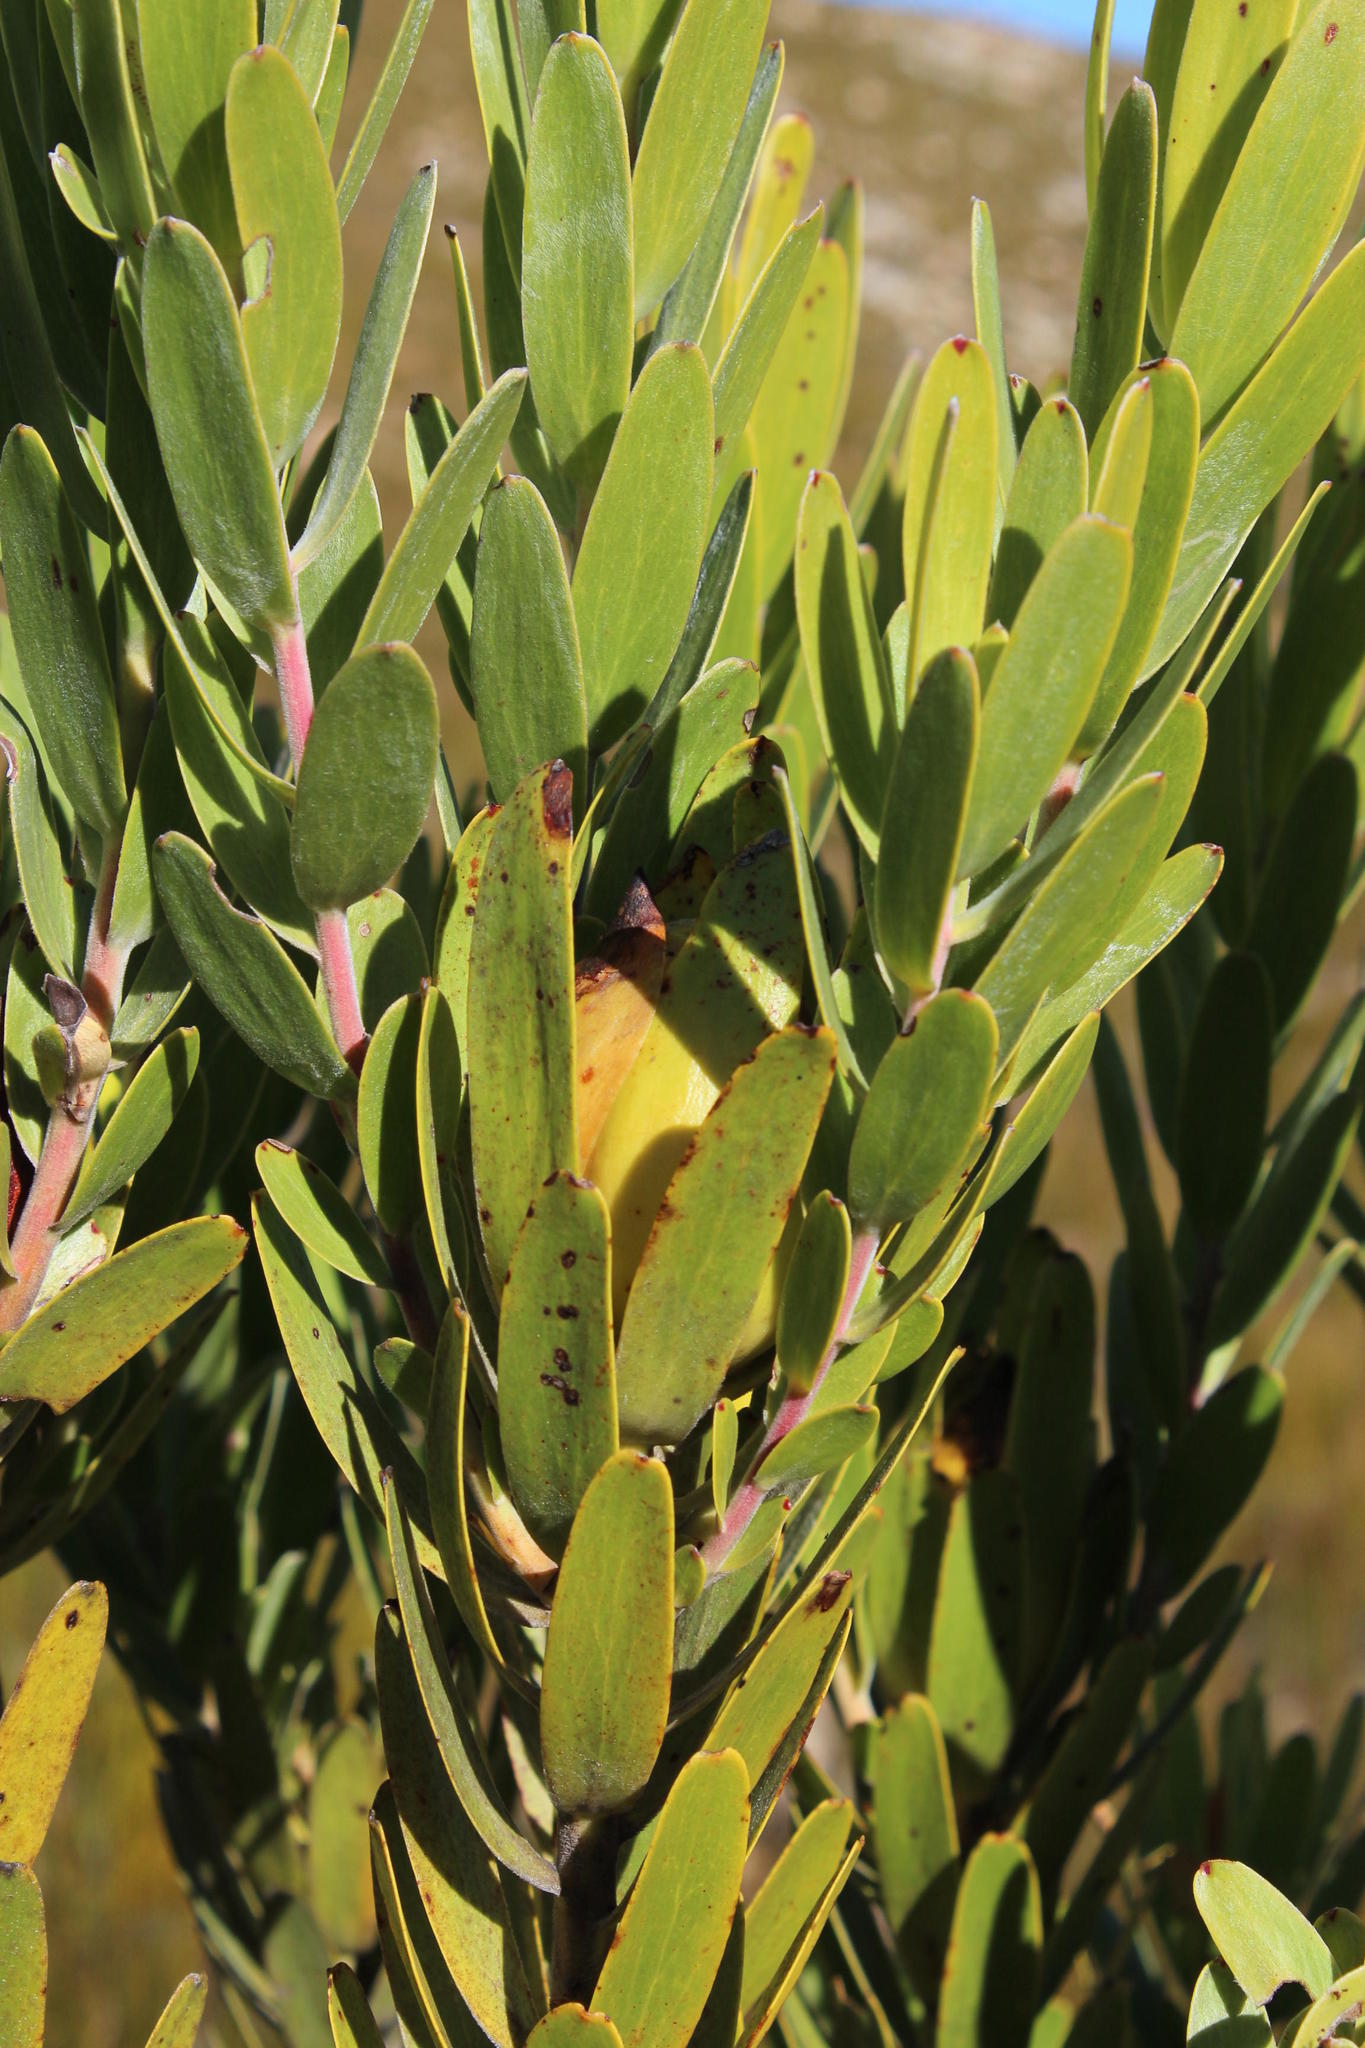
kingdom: Plantae
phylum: Tracheophyta
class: Magnoliopsida
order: Proteales
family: Proteaceae
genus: Leucadendron
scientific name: Leucadendron laureolum
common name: Golden sunshinebush
